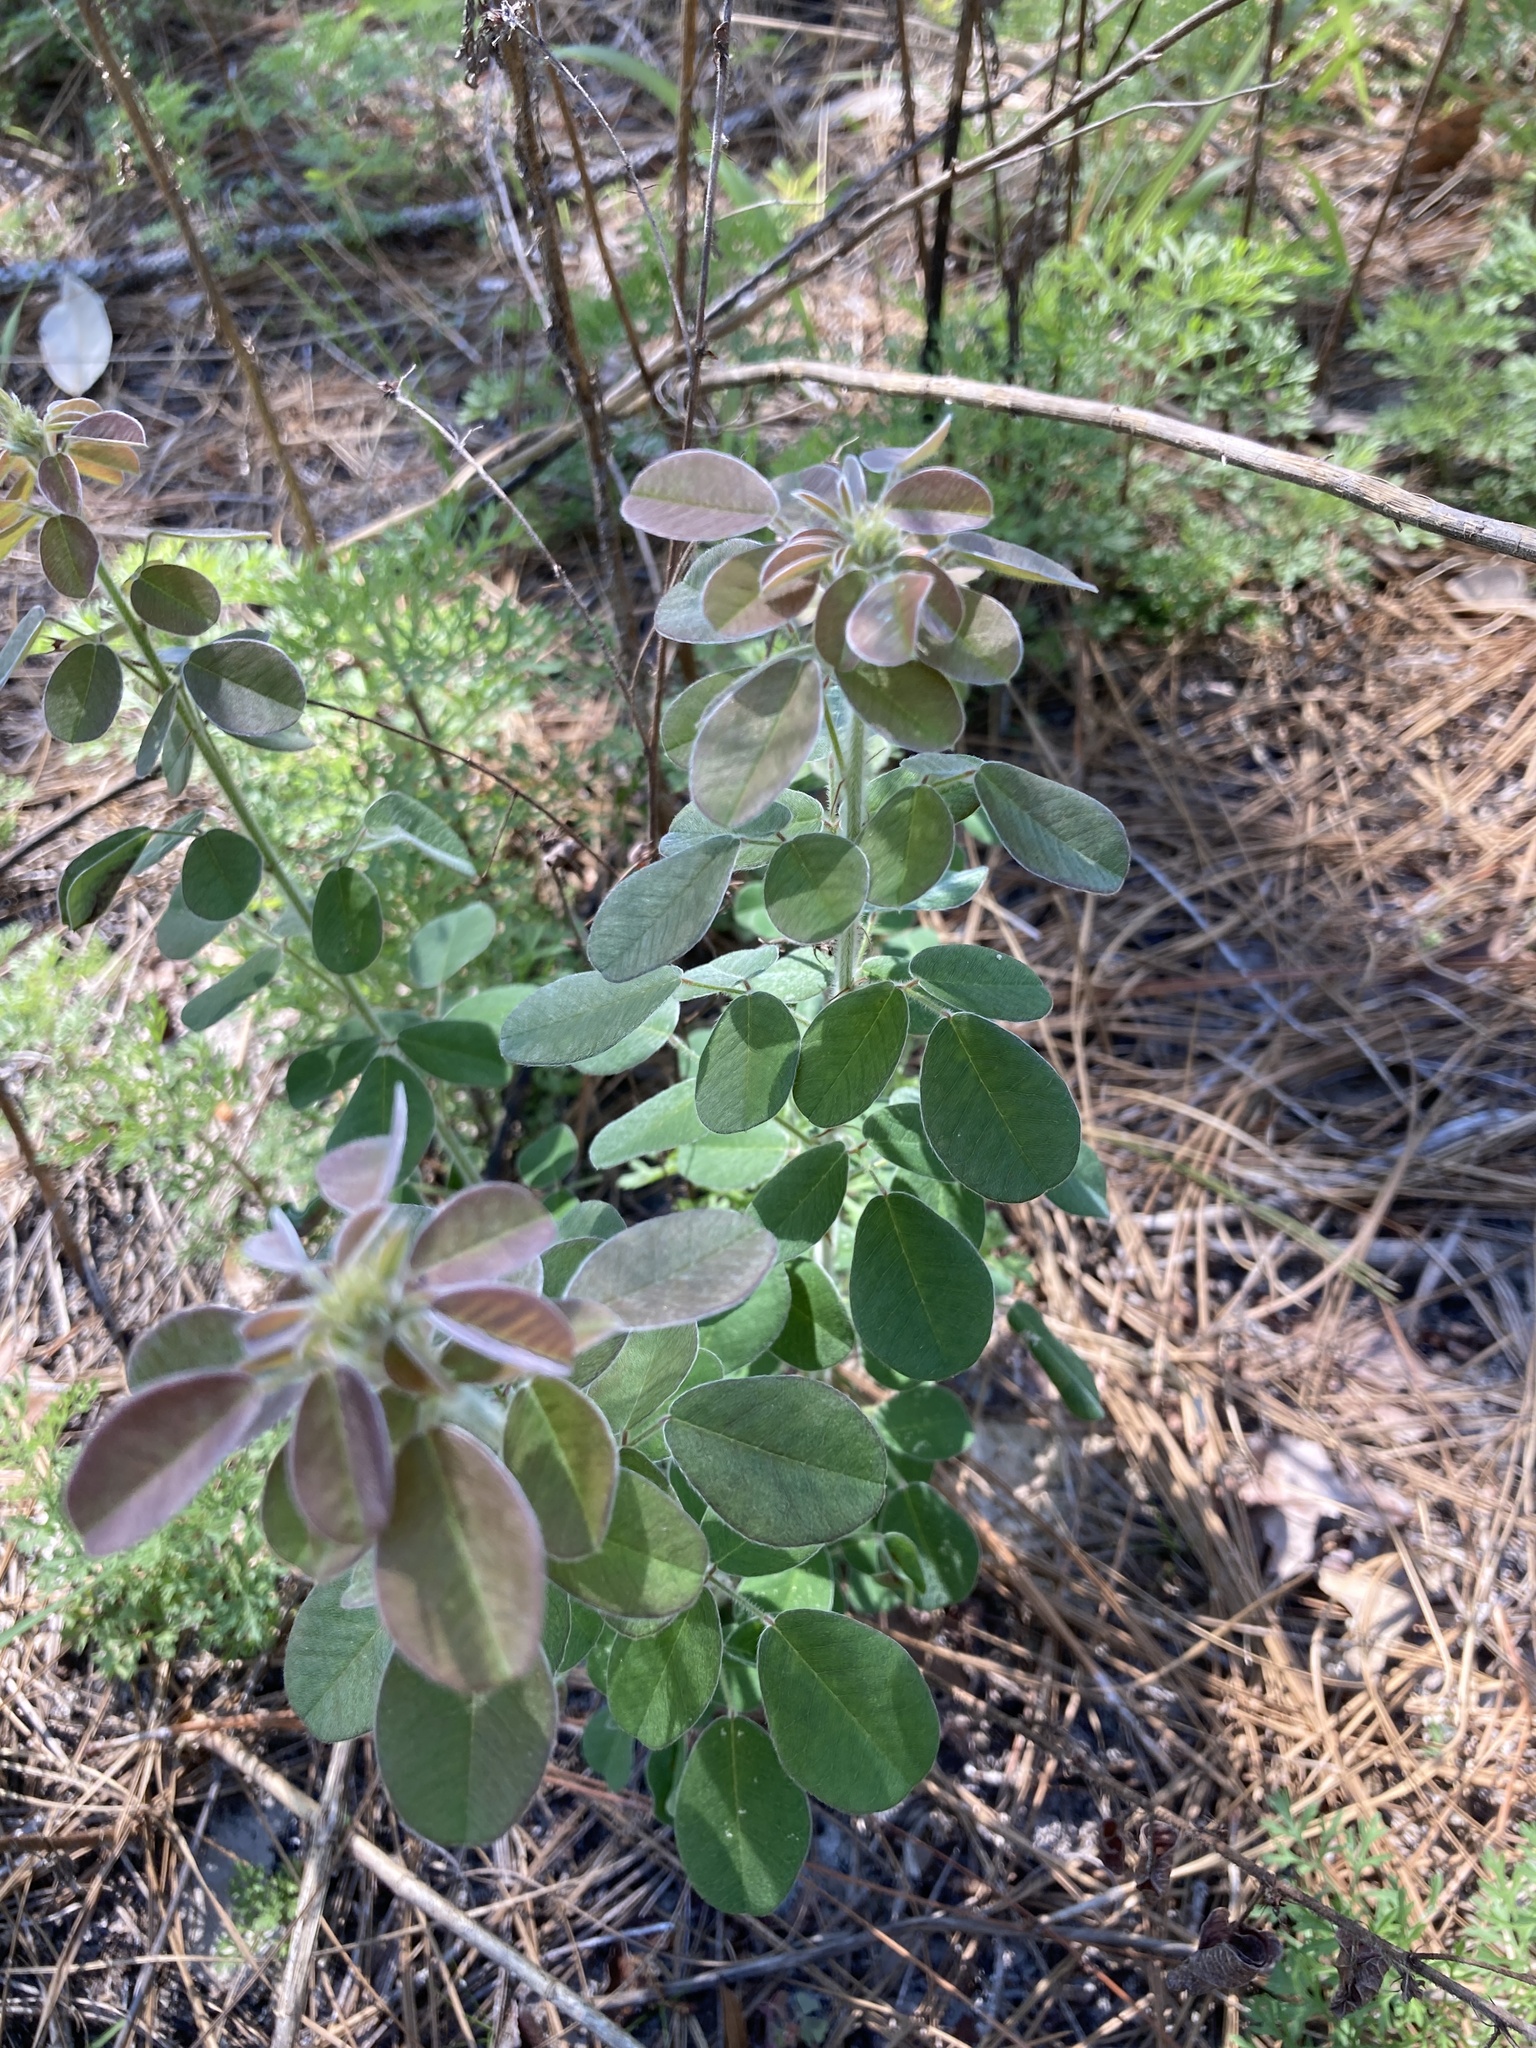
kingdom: Plantae
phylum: Tracheophyta
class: Magnoliopsida
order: Fabales
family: Fabaceae
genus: Lespedeza
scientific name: Lespedeza hirta
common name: Hairy lespedeza
